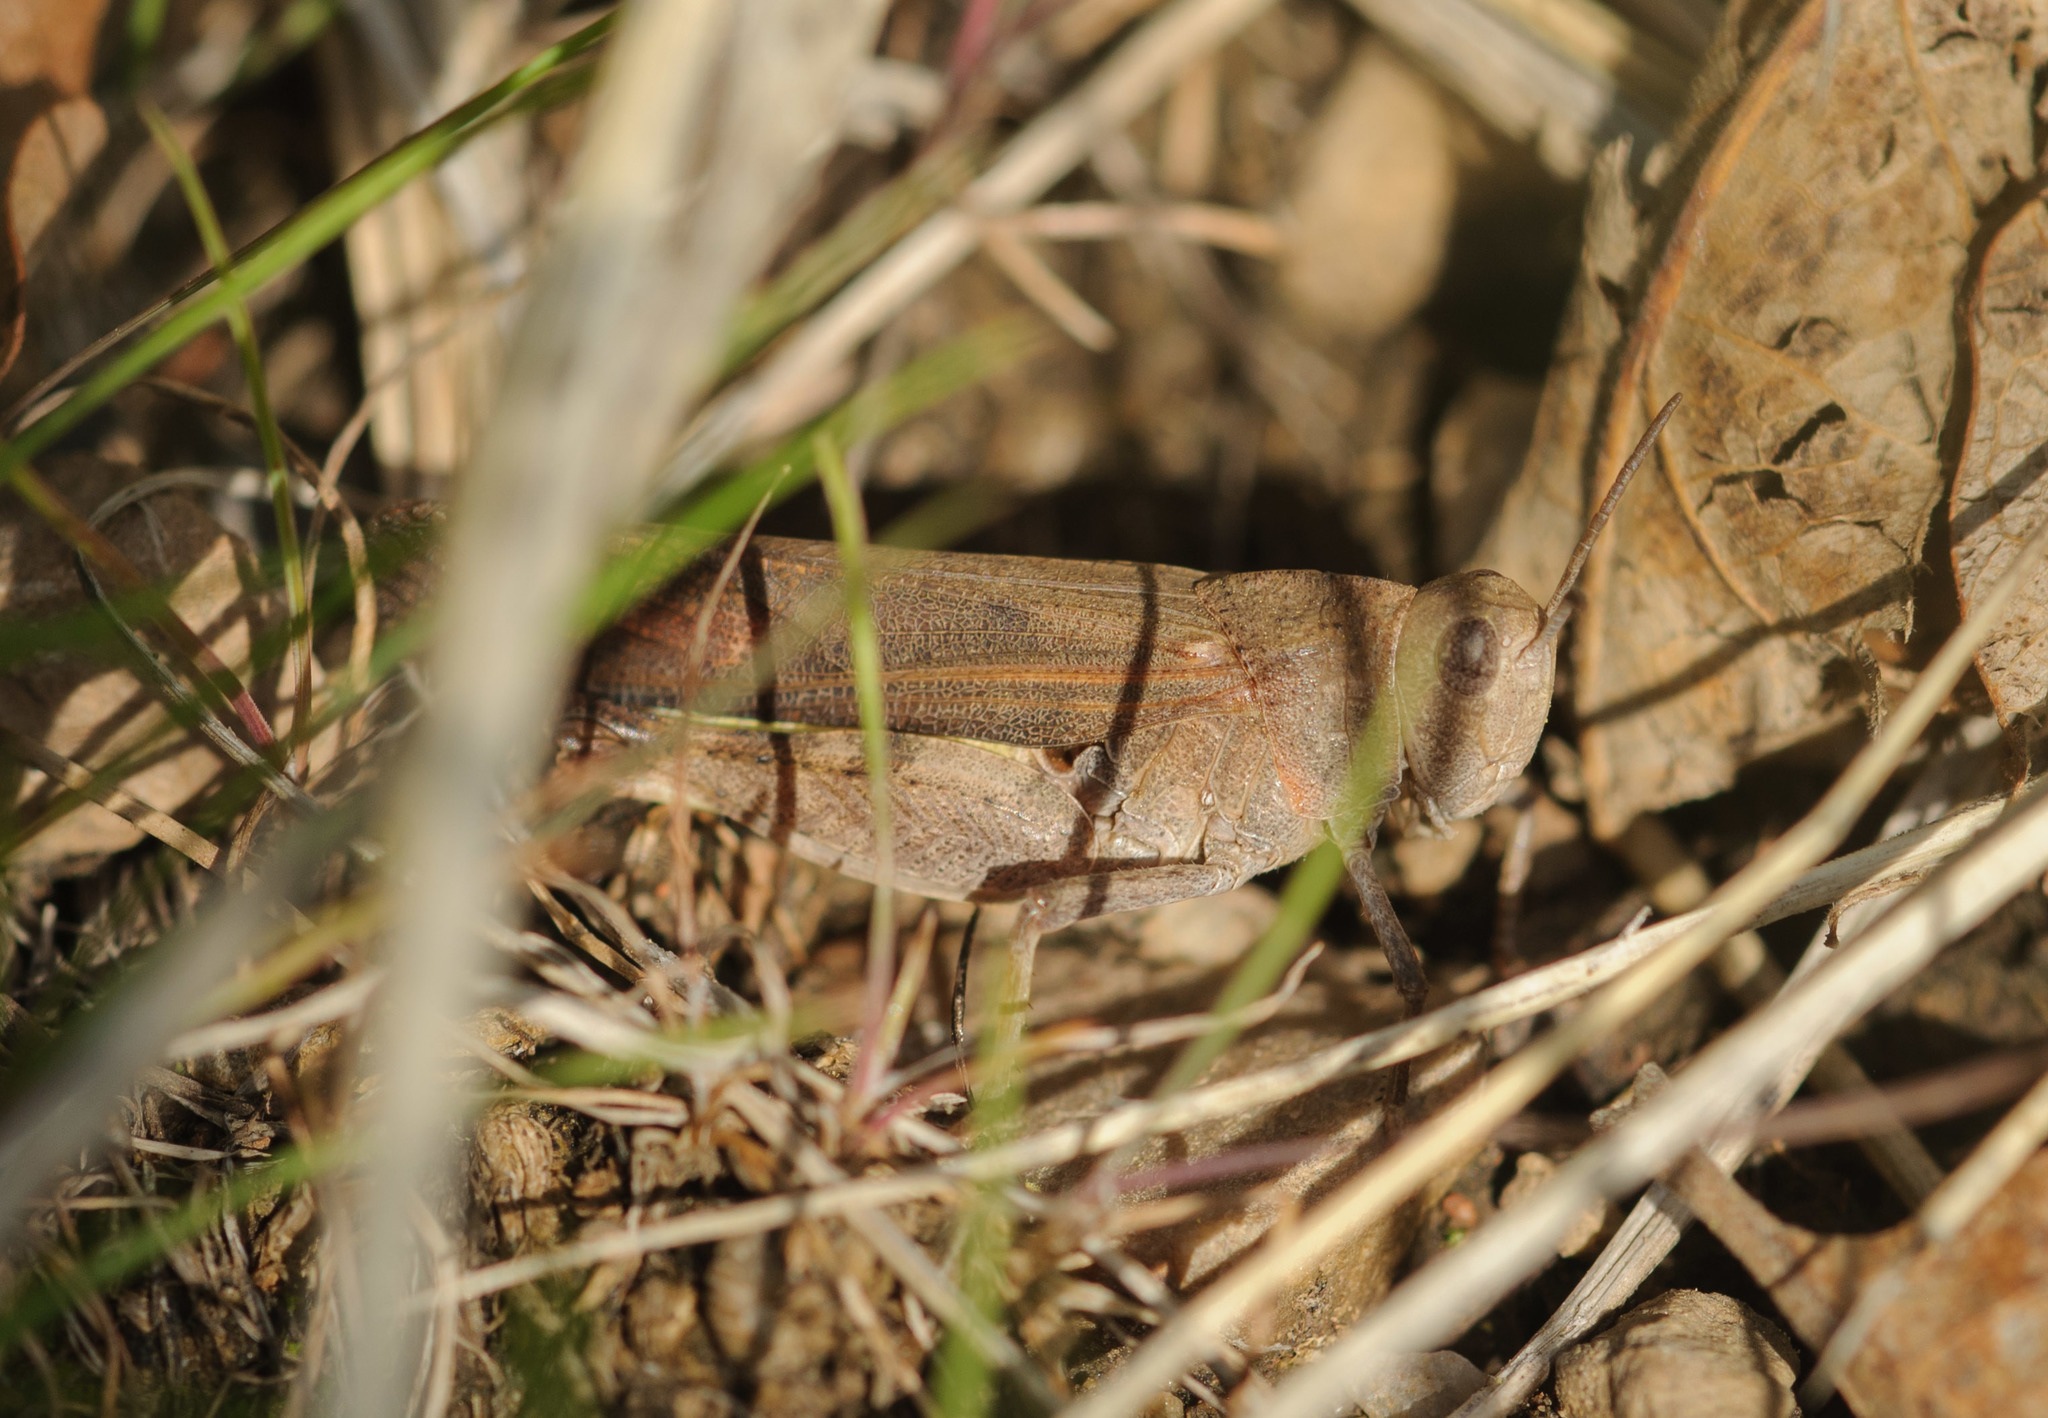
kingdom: Animalia
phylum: Arthropoda
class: Insecta
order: Orthoptera
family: Acrididae
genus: Arphia
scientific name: Arphia conspersa
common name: Speckle-winged rangeland grasshopper
